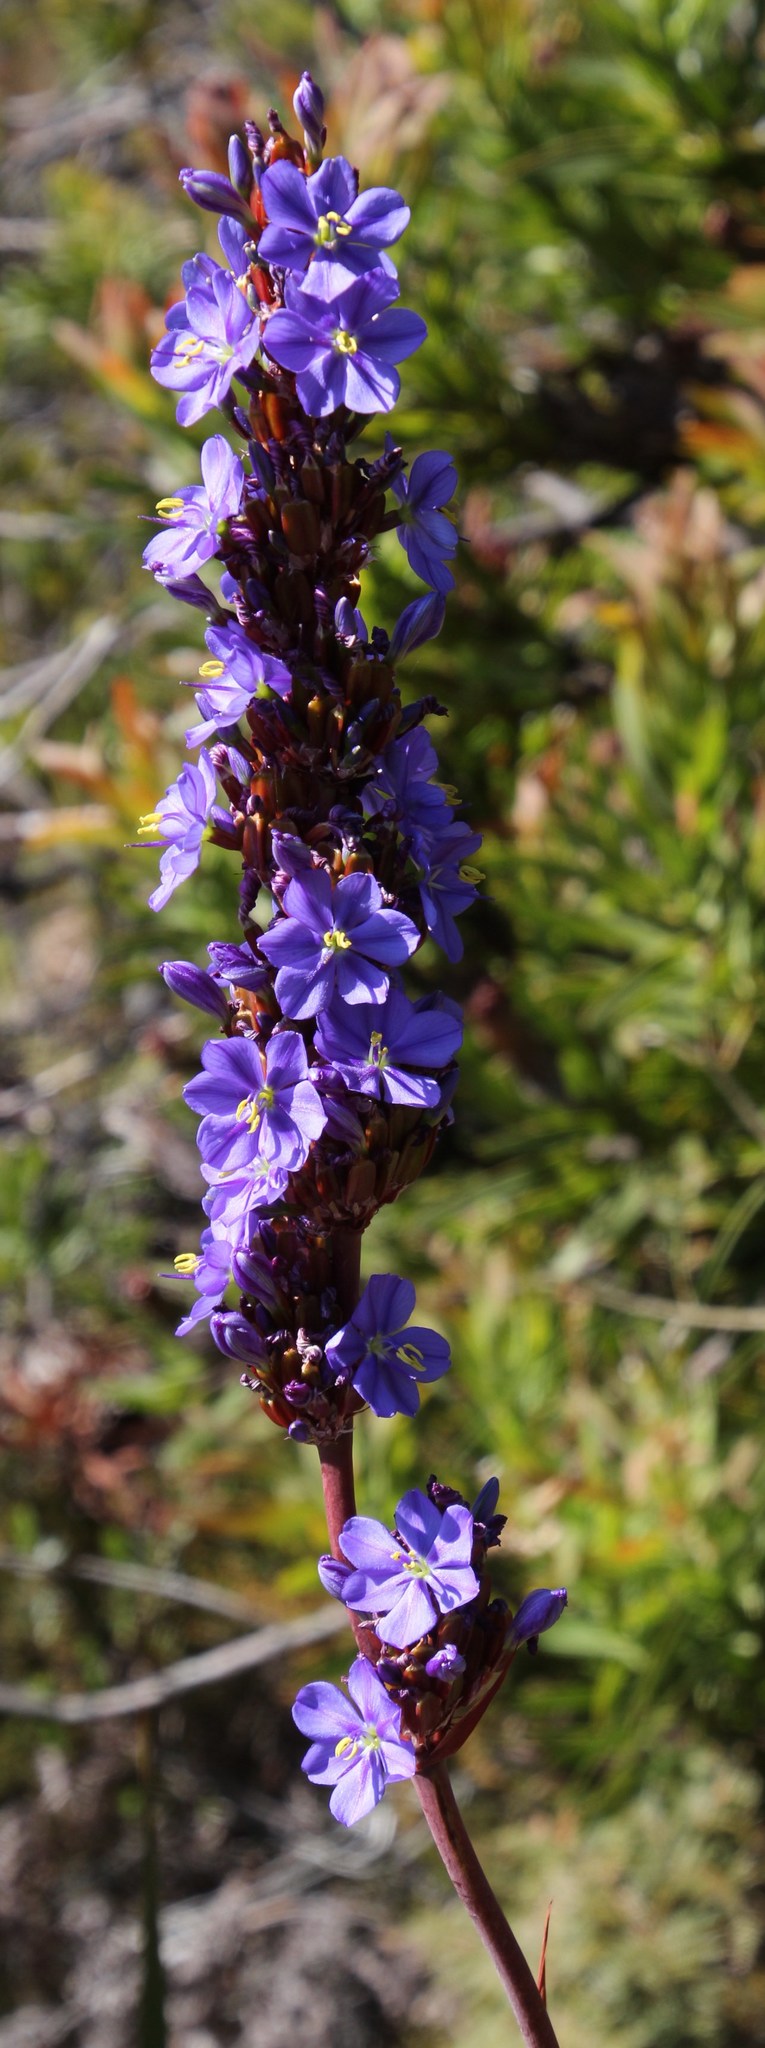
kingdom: Plantae
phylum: Tracheophyta
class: Liliopsida
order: Asparagales
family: Iridaceae
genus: Aristea
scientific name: Aristea capitata
